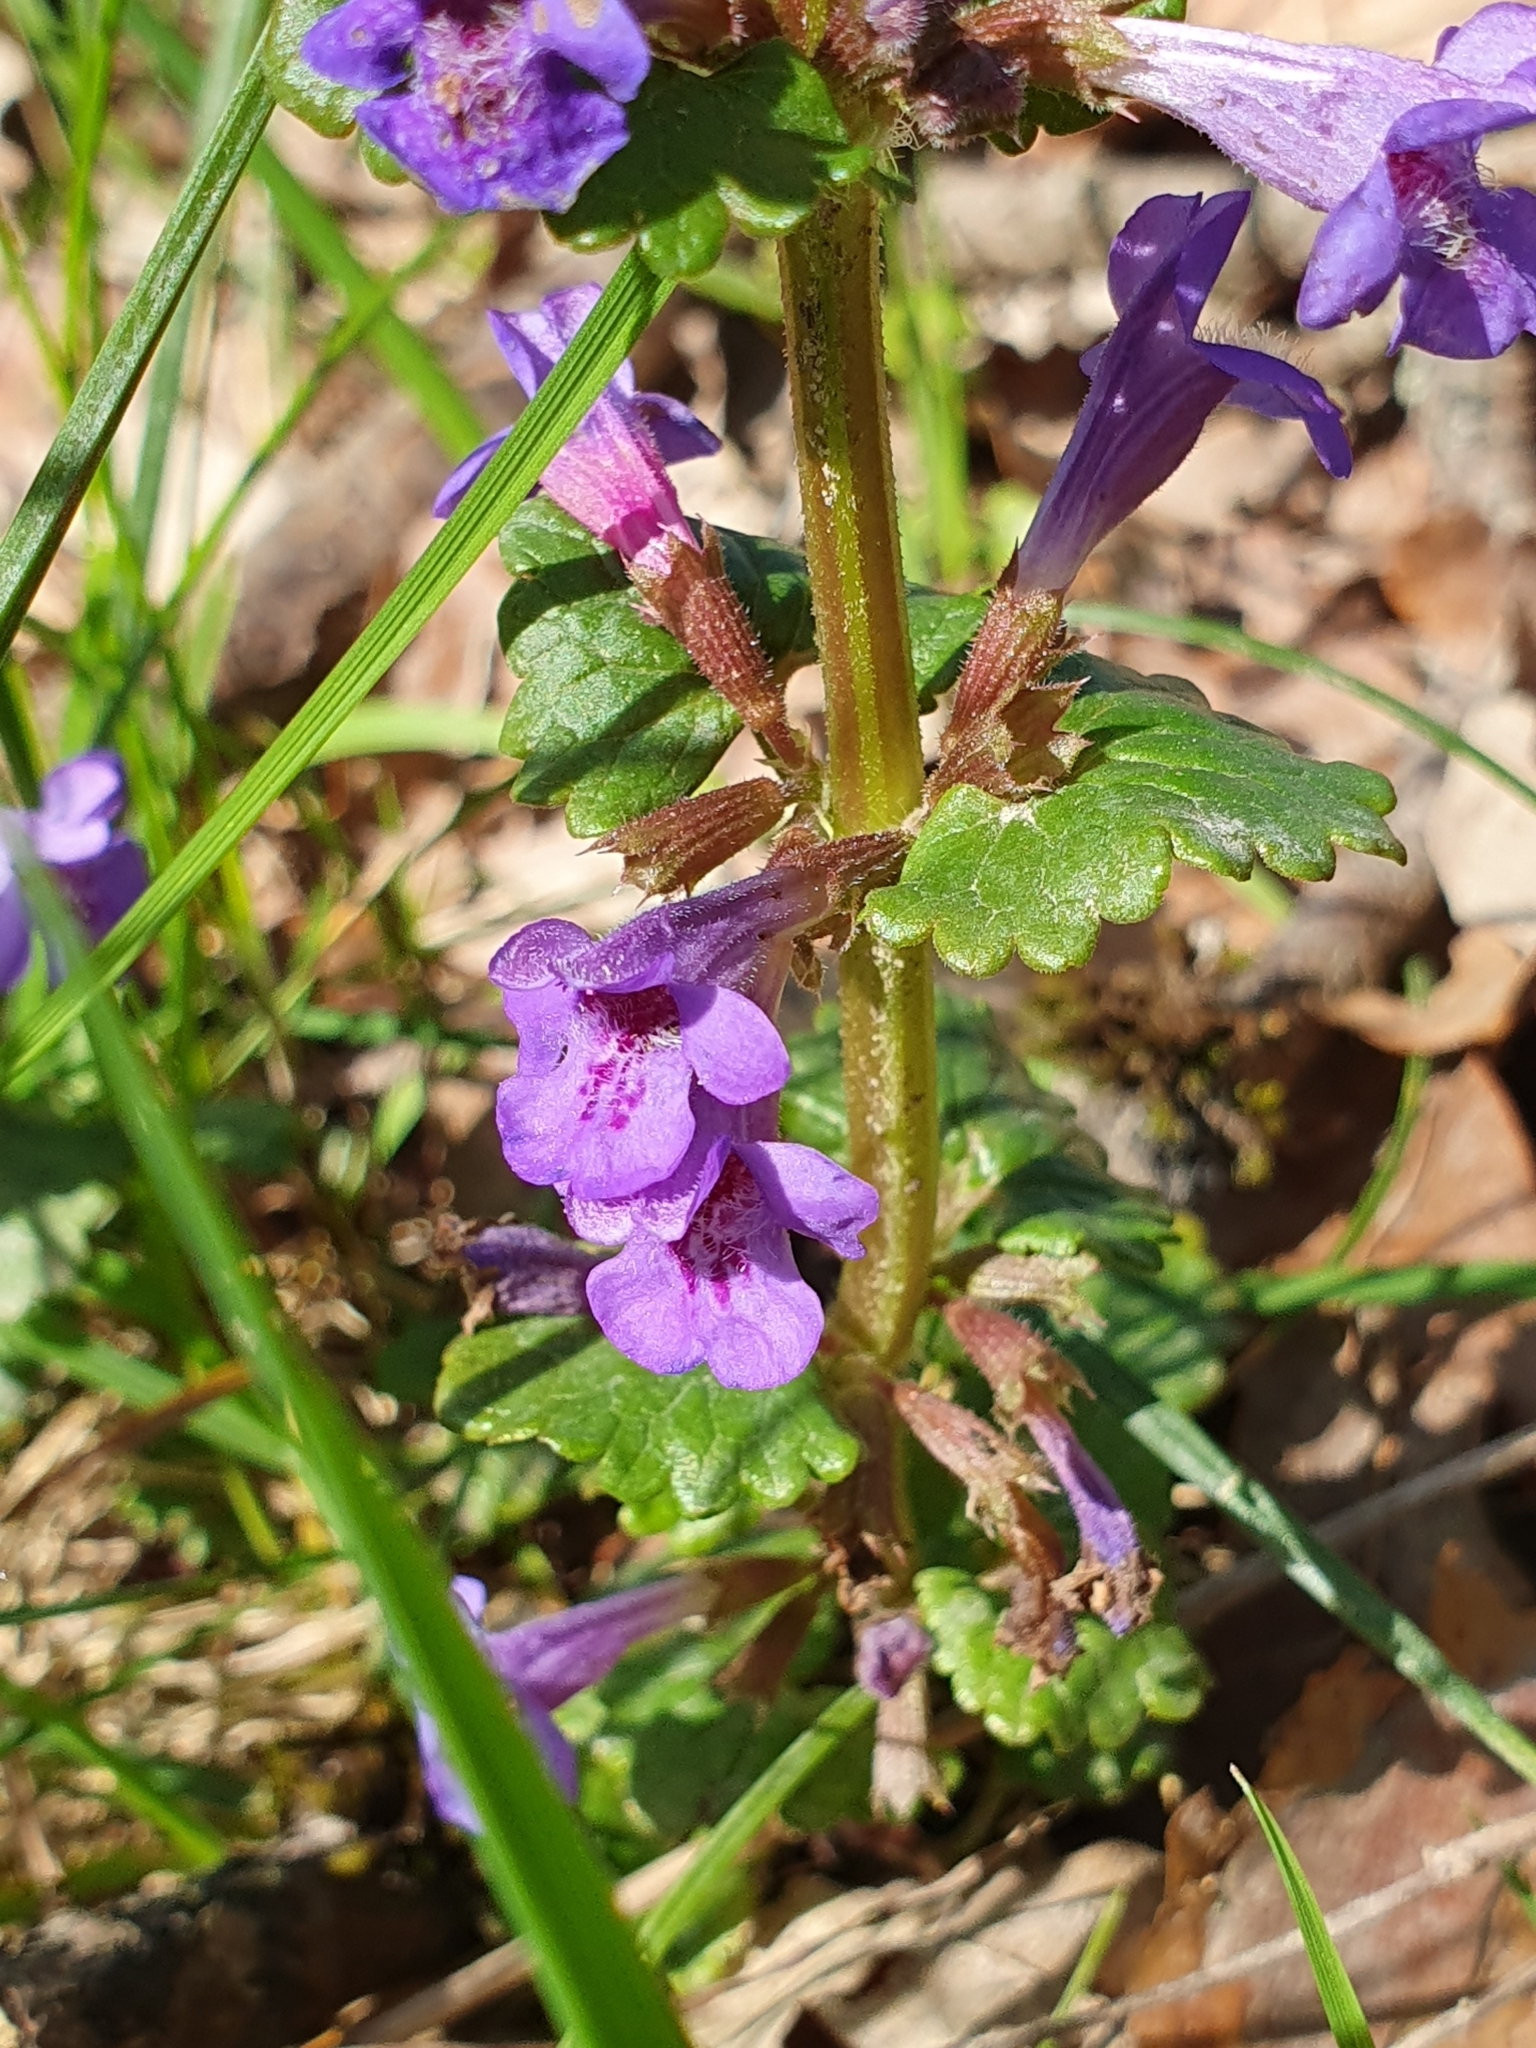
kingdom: Plantae
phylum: Tracheophyta
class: Magnoliopsida
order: Lamiales
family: Lamiaceae
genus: Glechoma
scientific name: Glechoma hederacea
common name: Ground ivy
